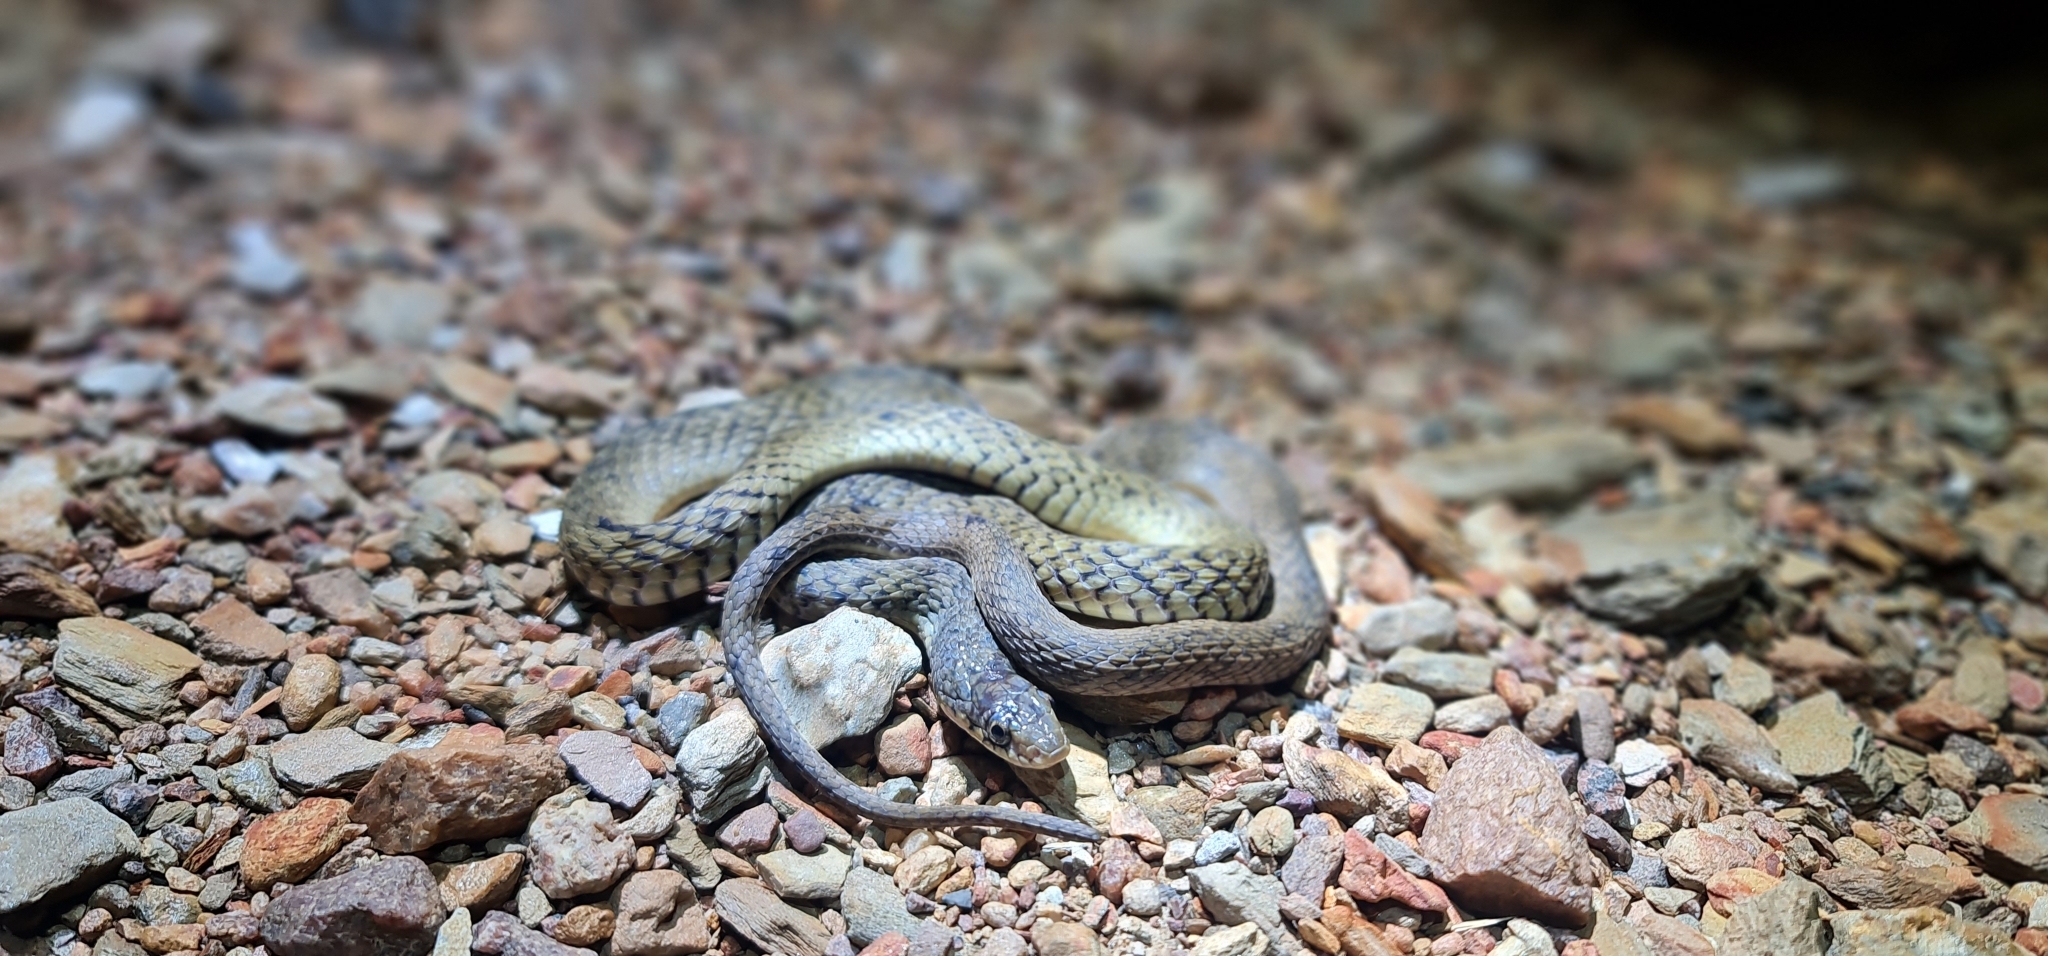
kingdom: Animalia
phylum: Chordata
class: Squamata
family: Colubridae
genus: Tropidonophis
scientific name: Tropidonophis mairii
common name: Common keelback
